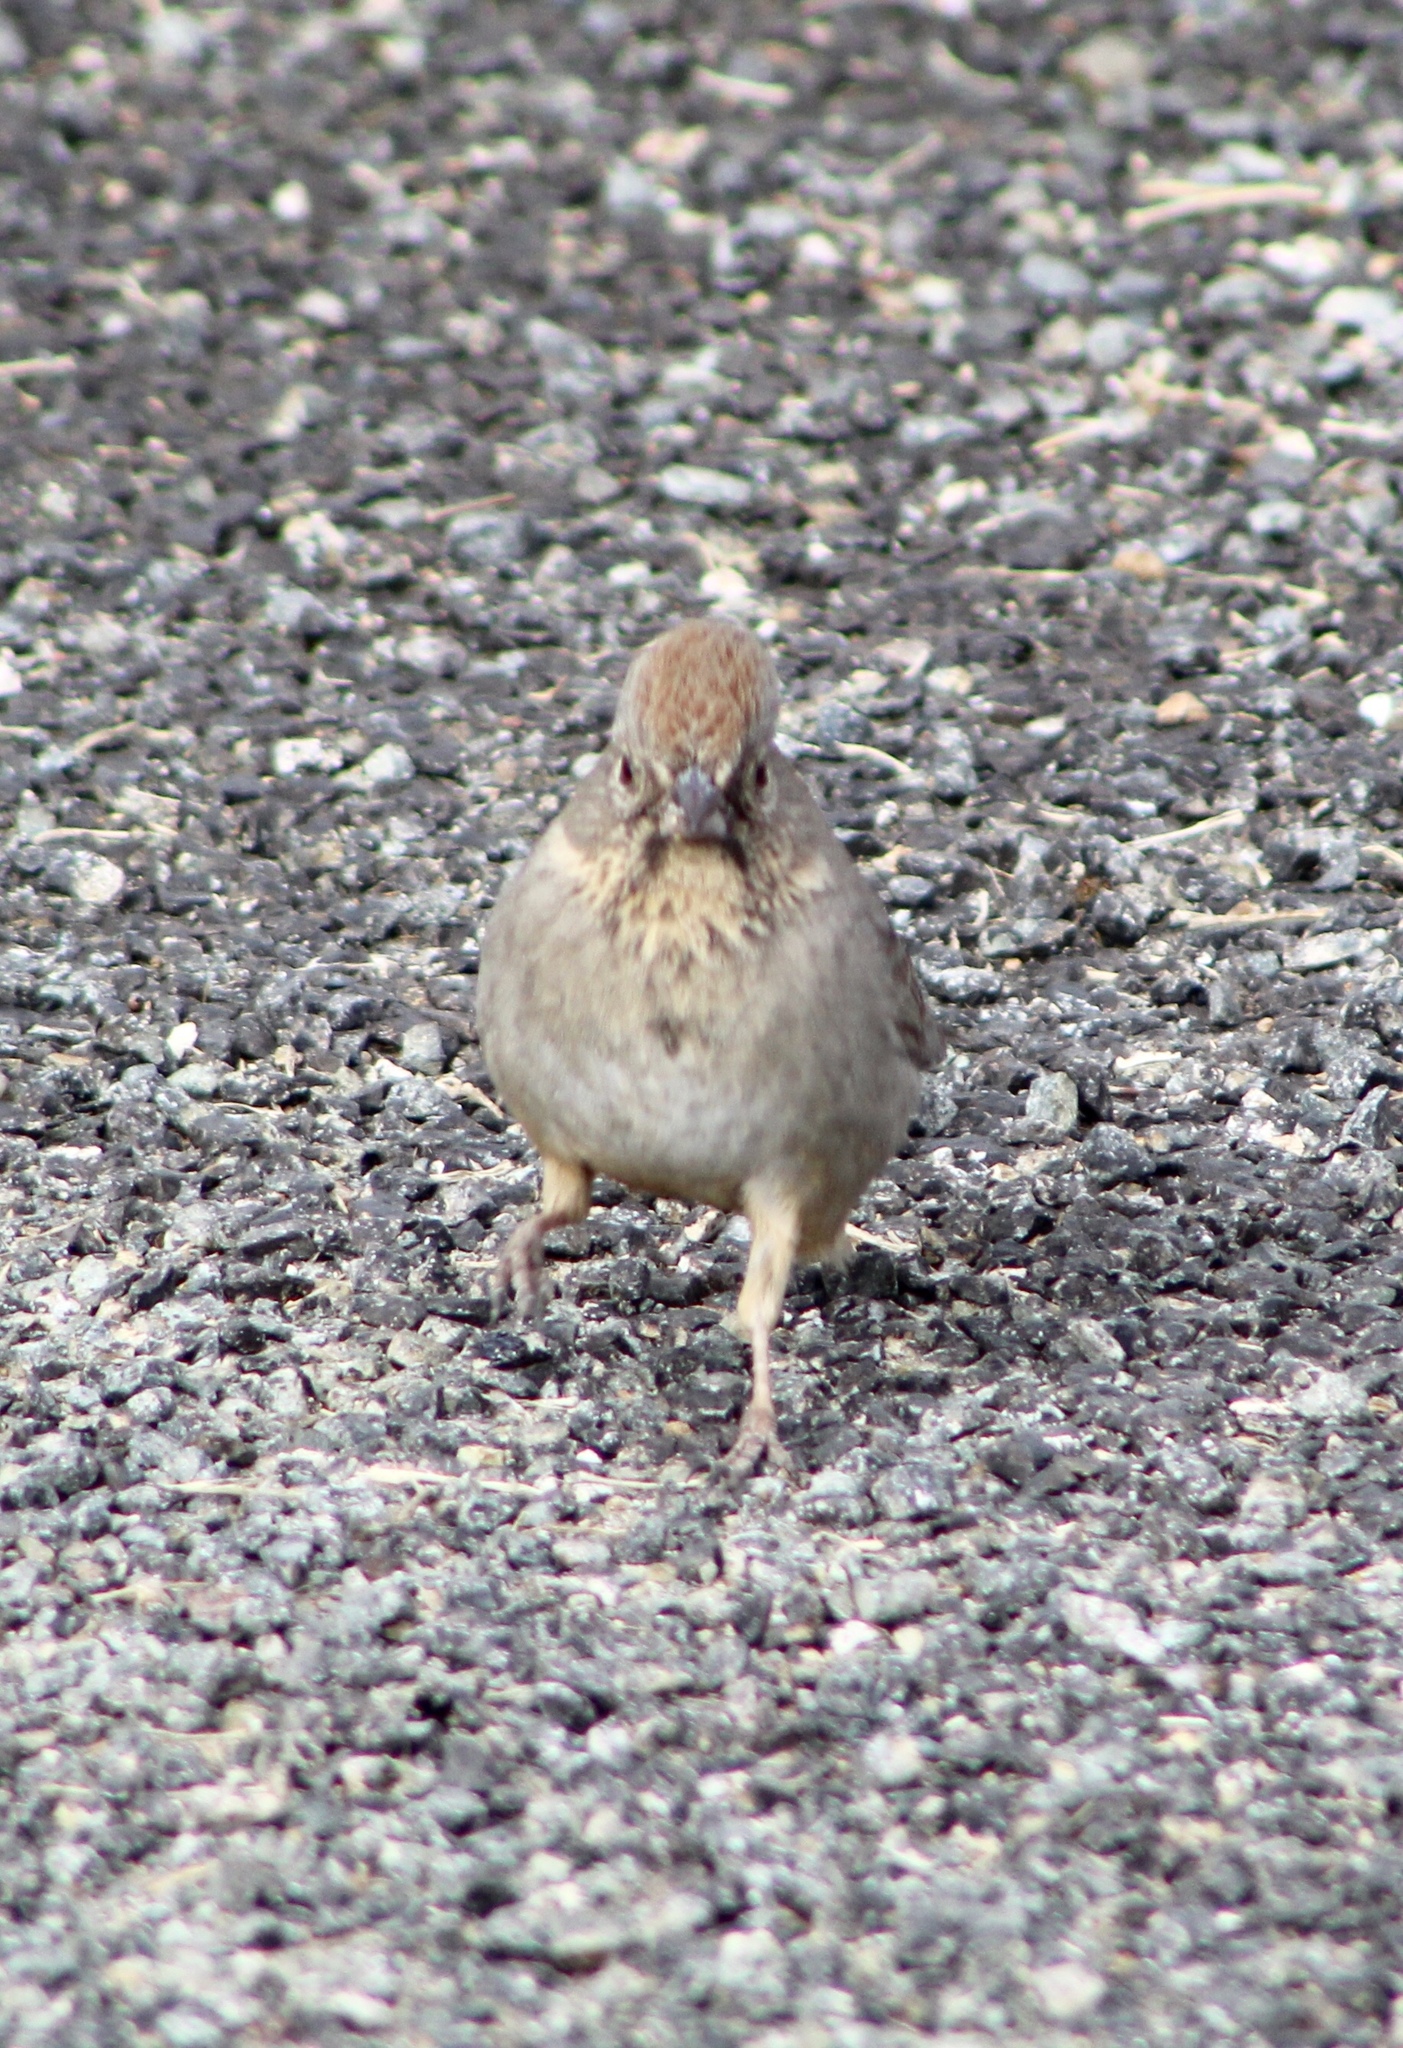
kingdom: Animalia
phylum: Chordata
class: Aves
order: Passeriformes
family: Passerellidae
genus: Melozone
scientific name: Melozone fusca
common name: Canyon towhee
